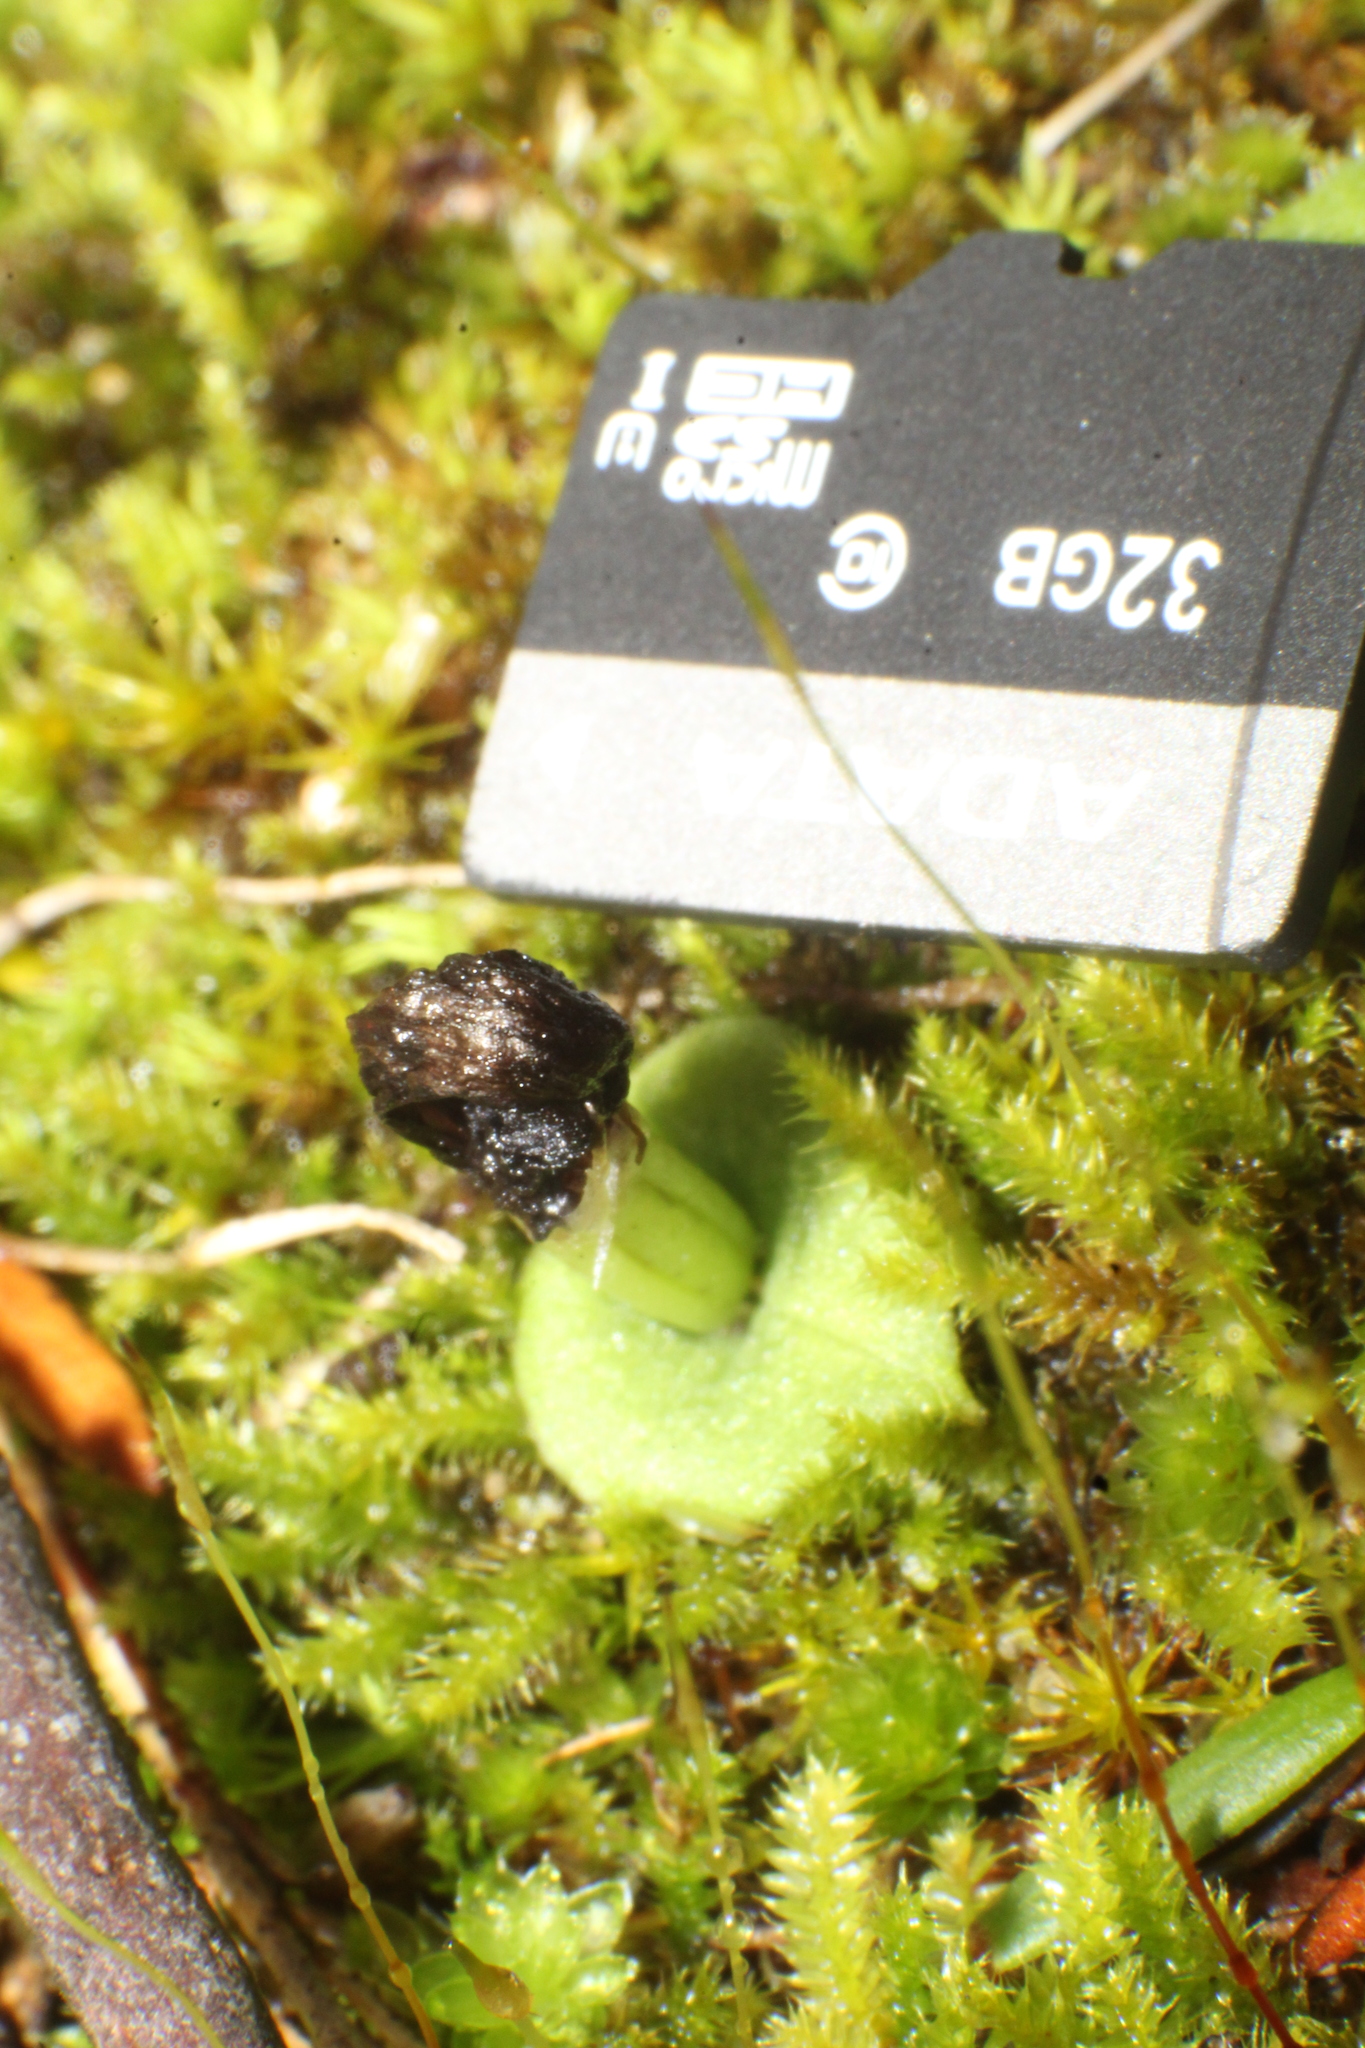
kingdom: Plantae
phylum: Tracheophyta
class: Liliopsida
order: Asparagales
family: Orchidaceae
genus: Corybas
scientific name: Corybas recurvus
